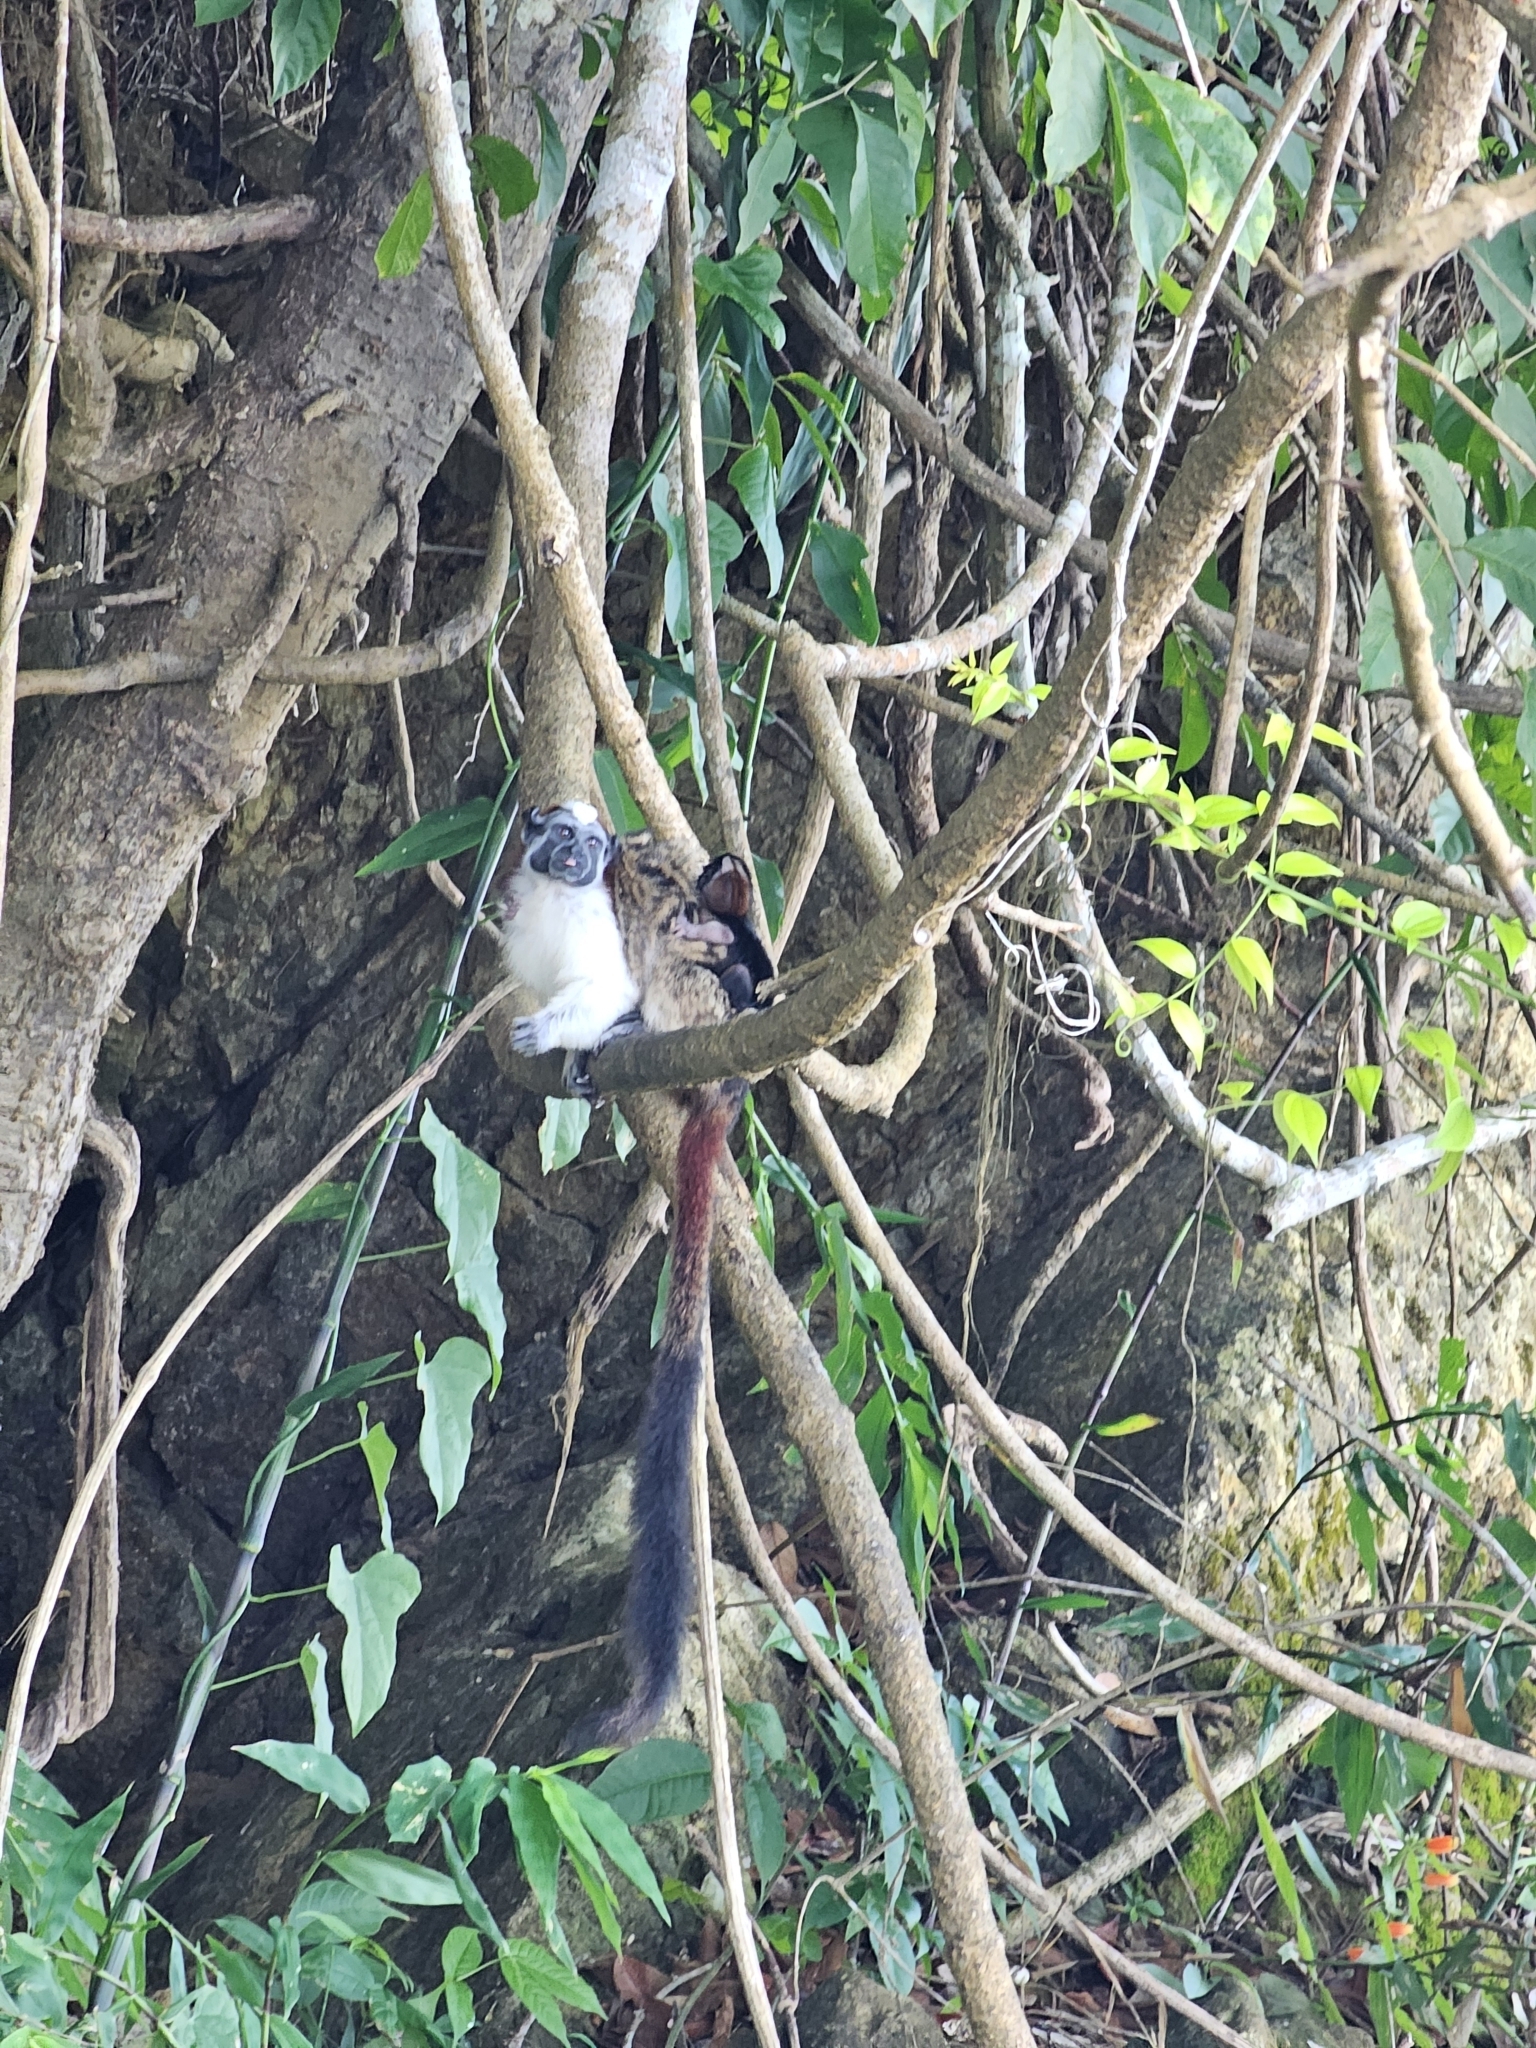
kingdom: Animalia
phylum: Chordata
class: Mammalia
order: Primates
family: Callitrichidae
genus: Saguinus
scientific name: Saguinus geoffroyi
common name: Geoffroy s tamarin
